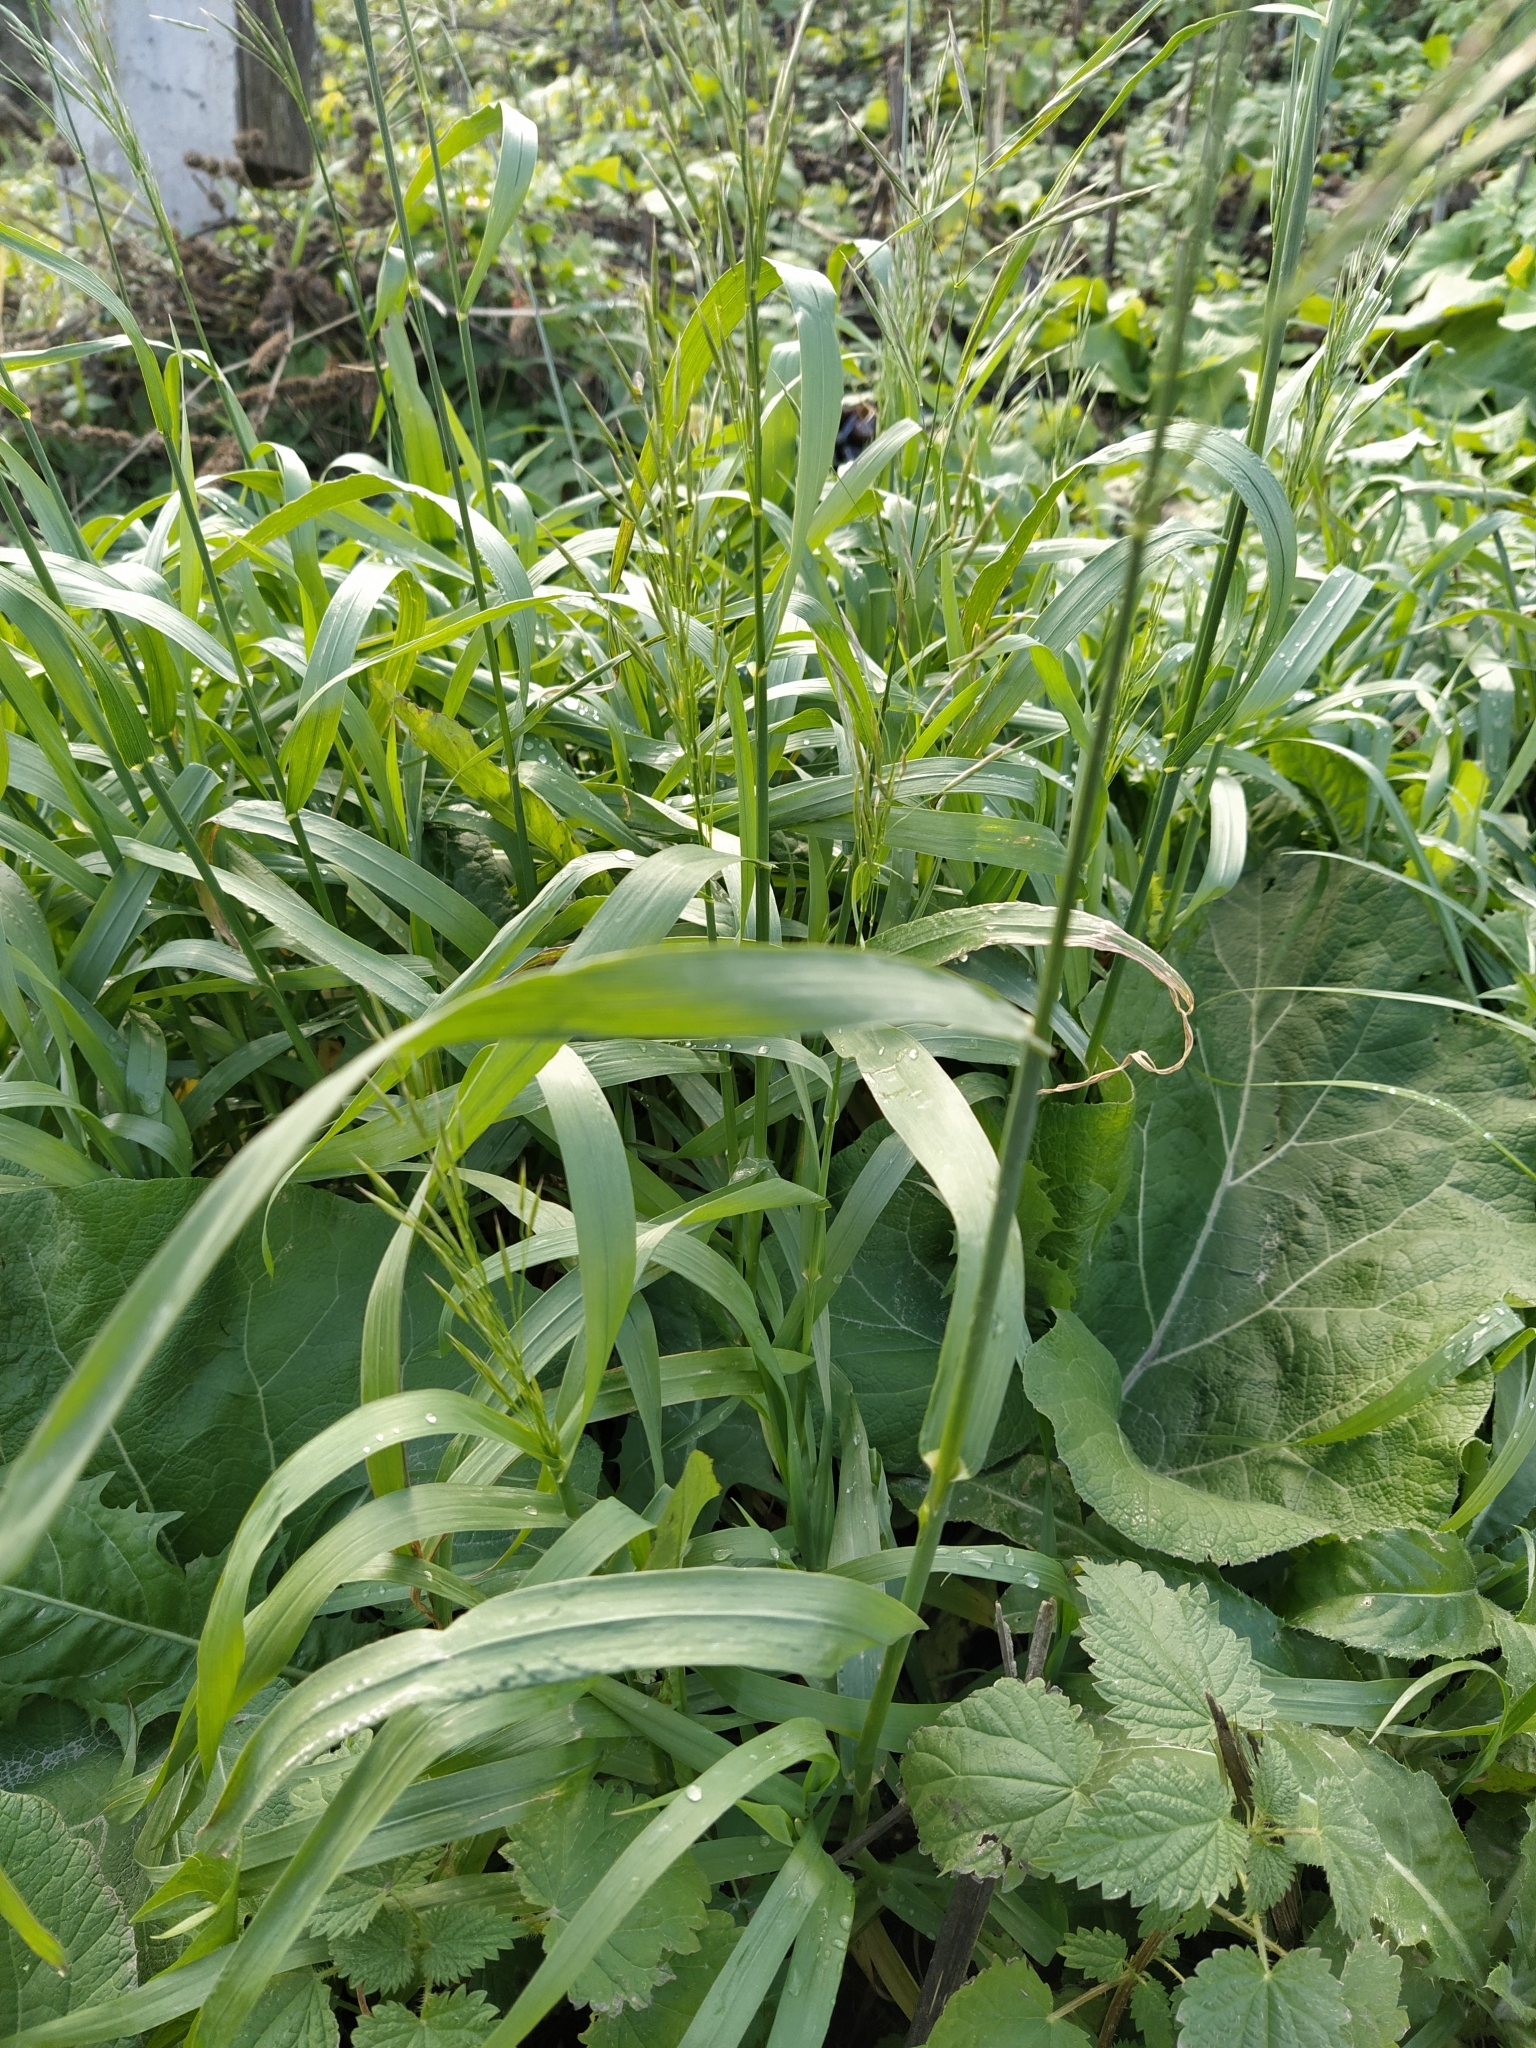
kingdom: Plantae
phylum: Tracheophyta
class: Liliopsida
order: Poales
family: Poaceae
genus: Bromus
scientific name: Bromus inermis
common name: Smooth brome
